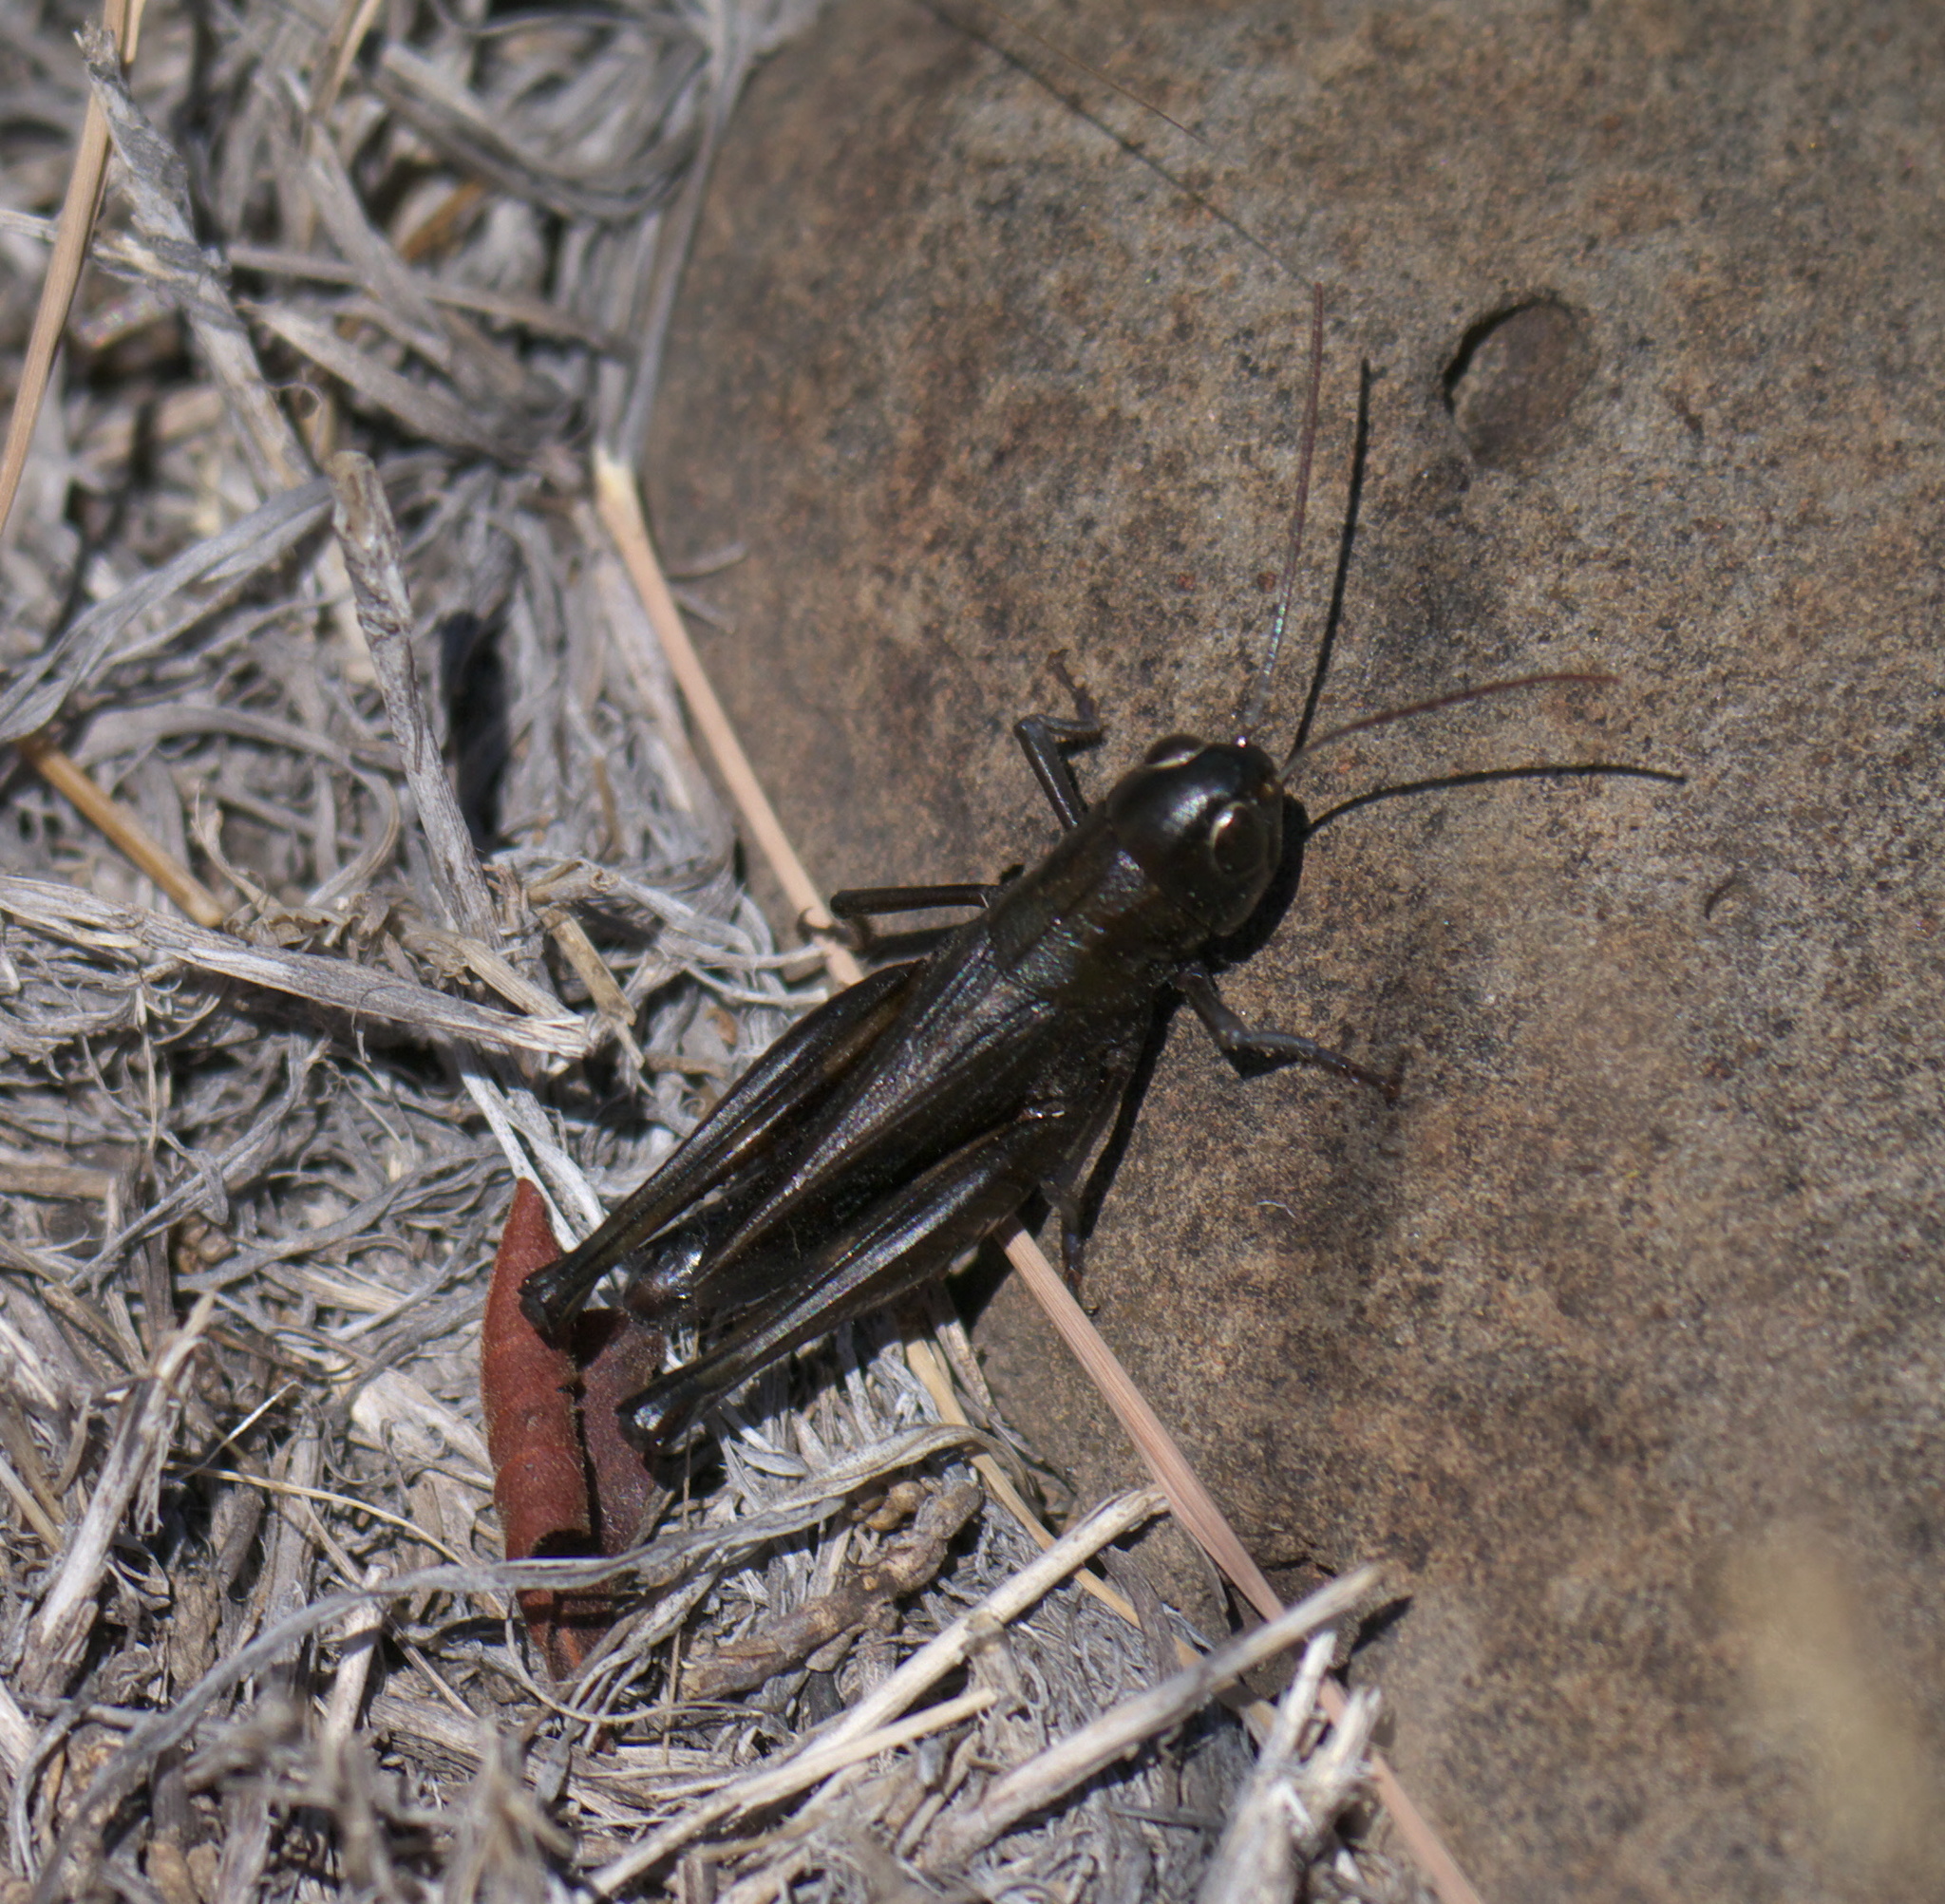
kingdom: Animalia
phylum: Arthropoda
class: Insecta
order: Orthoptera
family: Acrididae
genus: Boopedon
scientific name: Boopedon nubilum
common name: Ebony grasshopper
